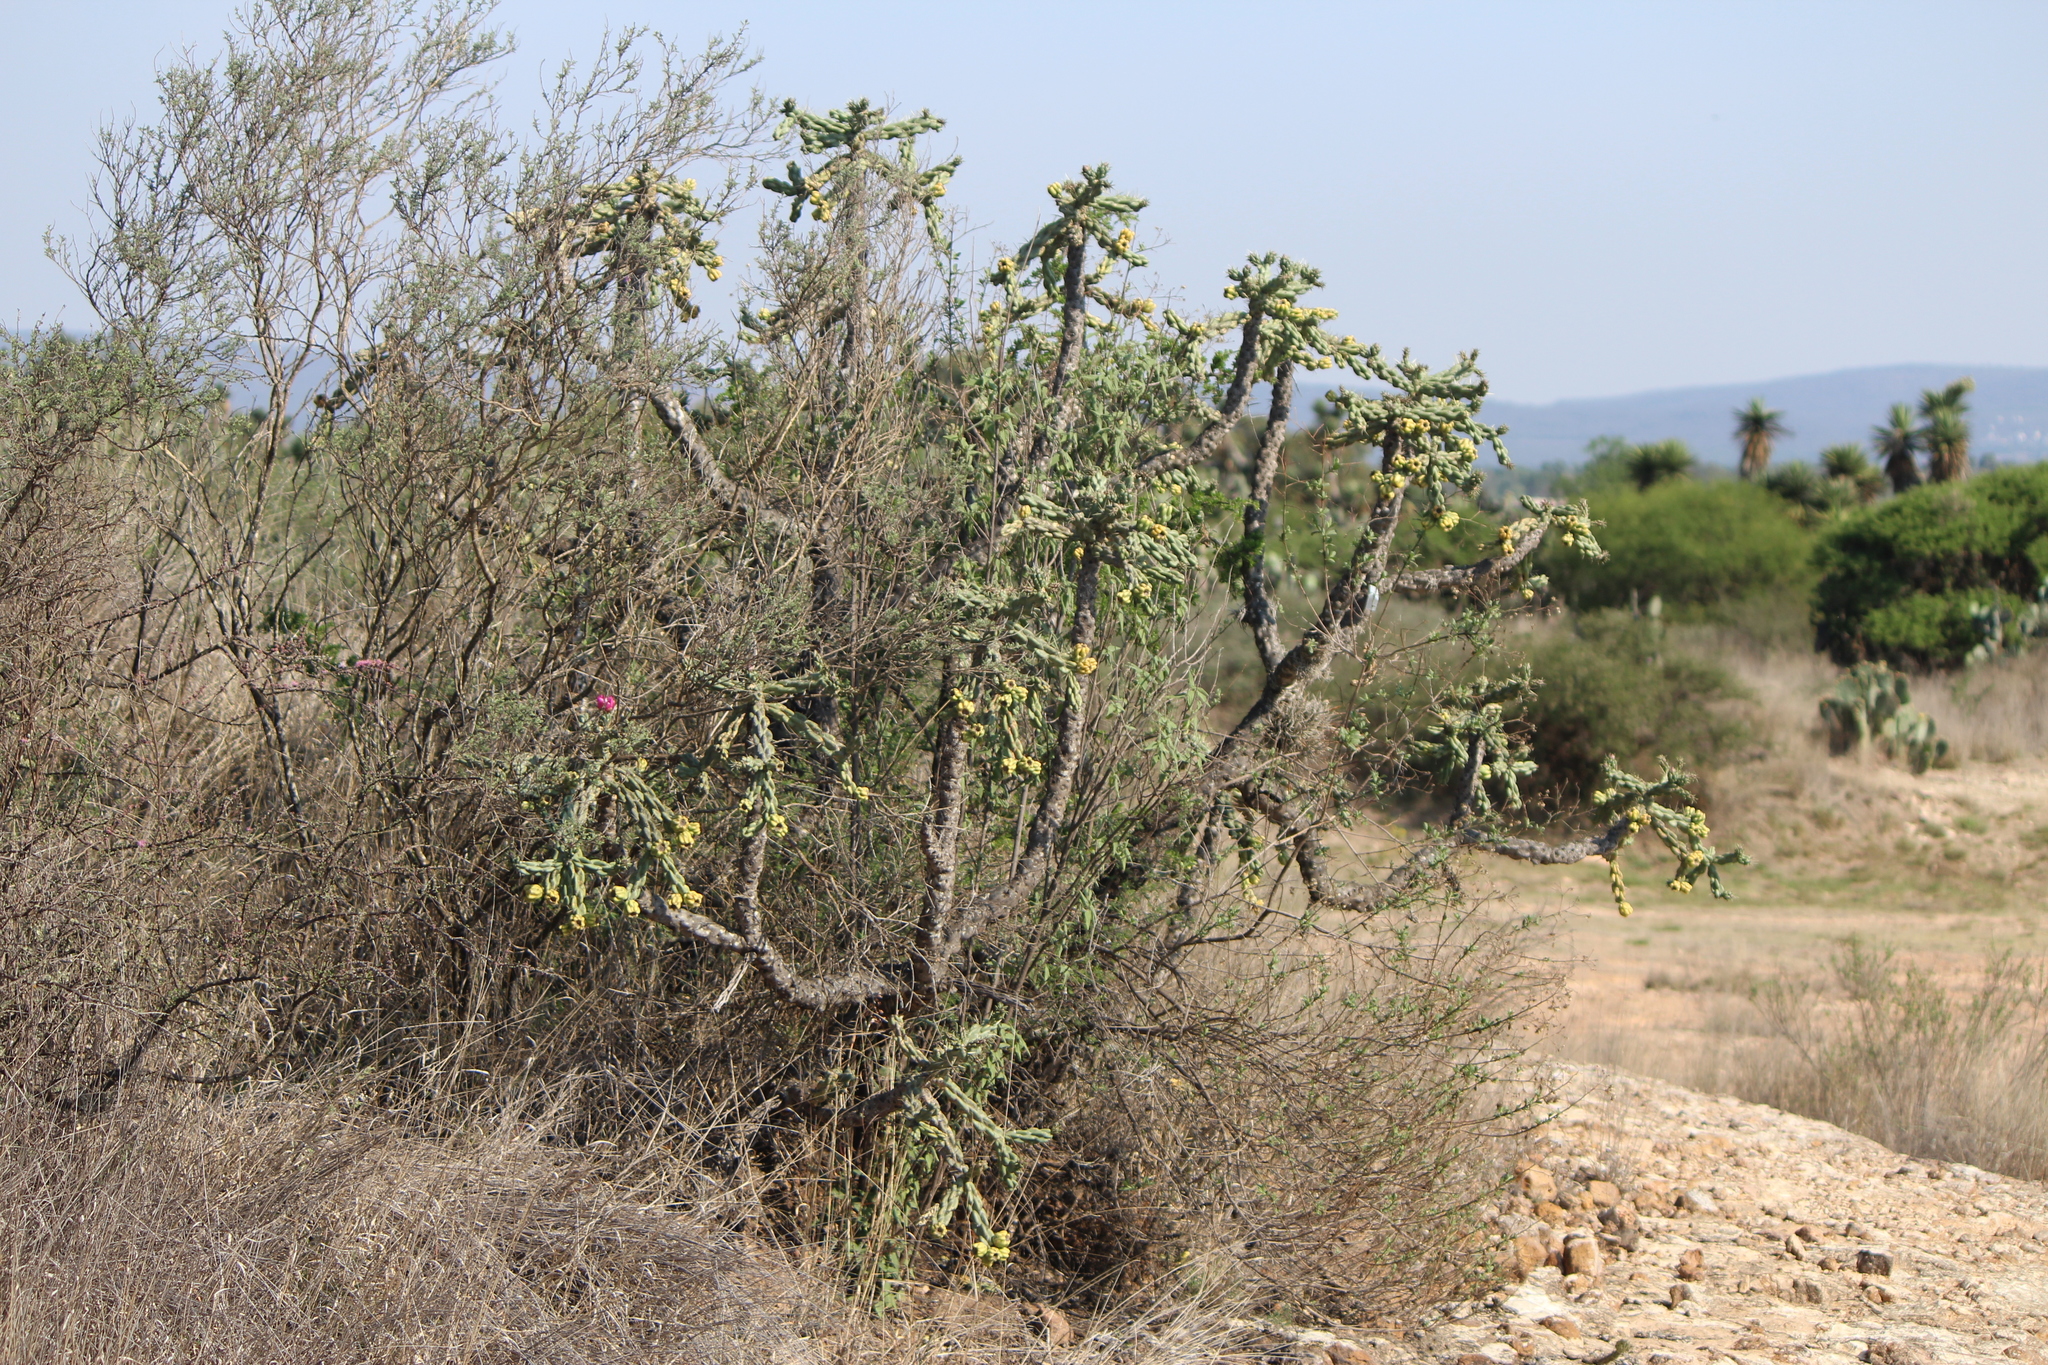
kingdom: Plantae
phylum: Tracheophyta
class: Magnoliopsida
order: Caryophyllales
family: Cactaceae
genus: Cylindropuntia
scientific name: Cylindropuntia imbricata
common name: Candelabrum cactus
